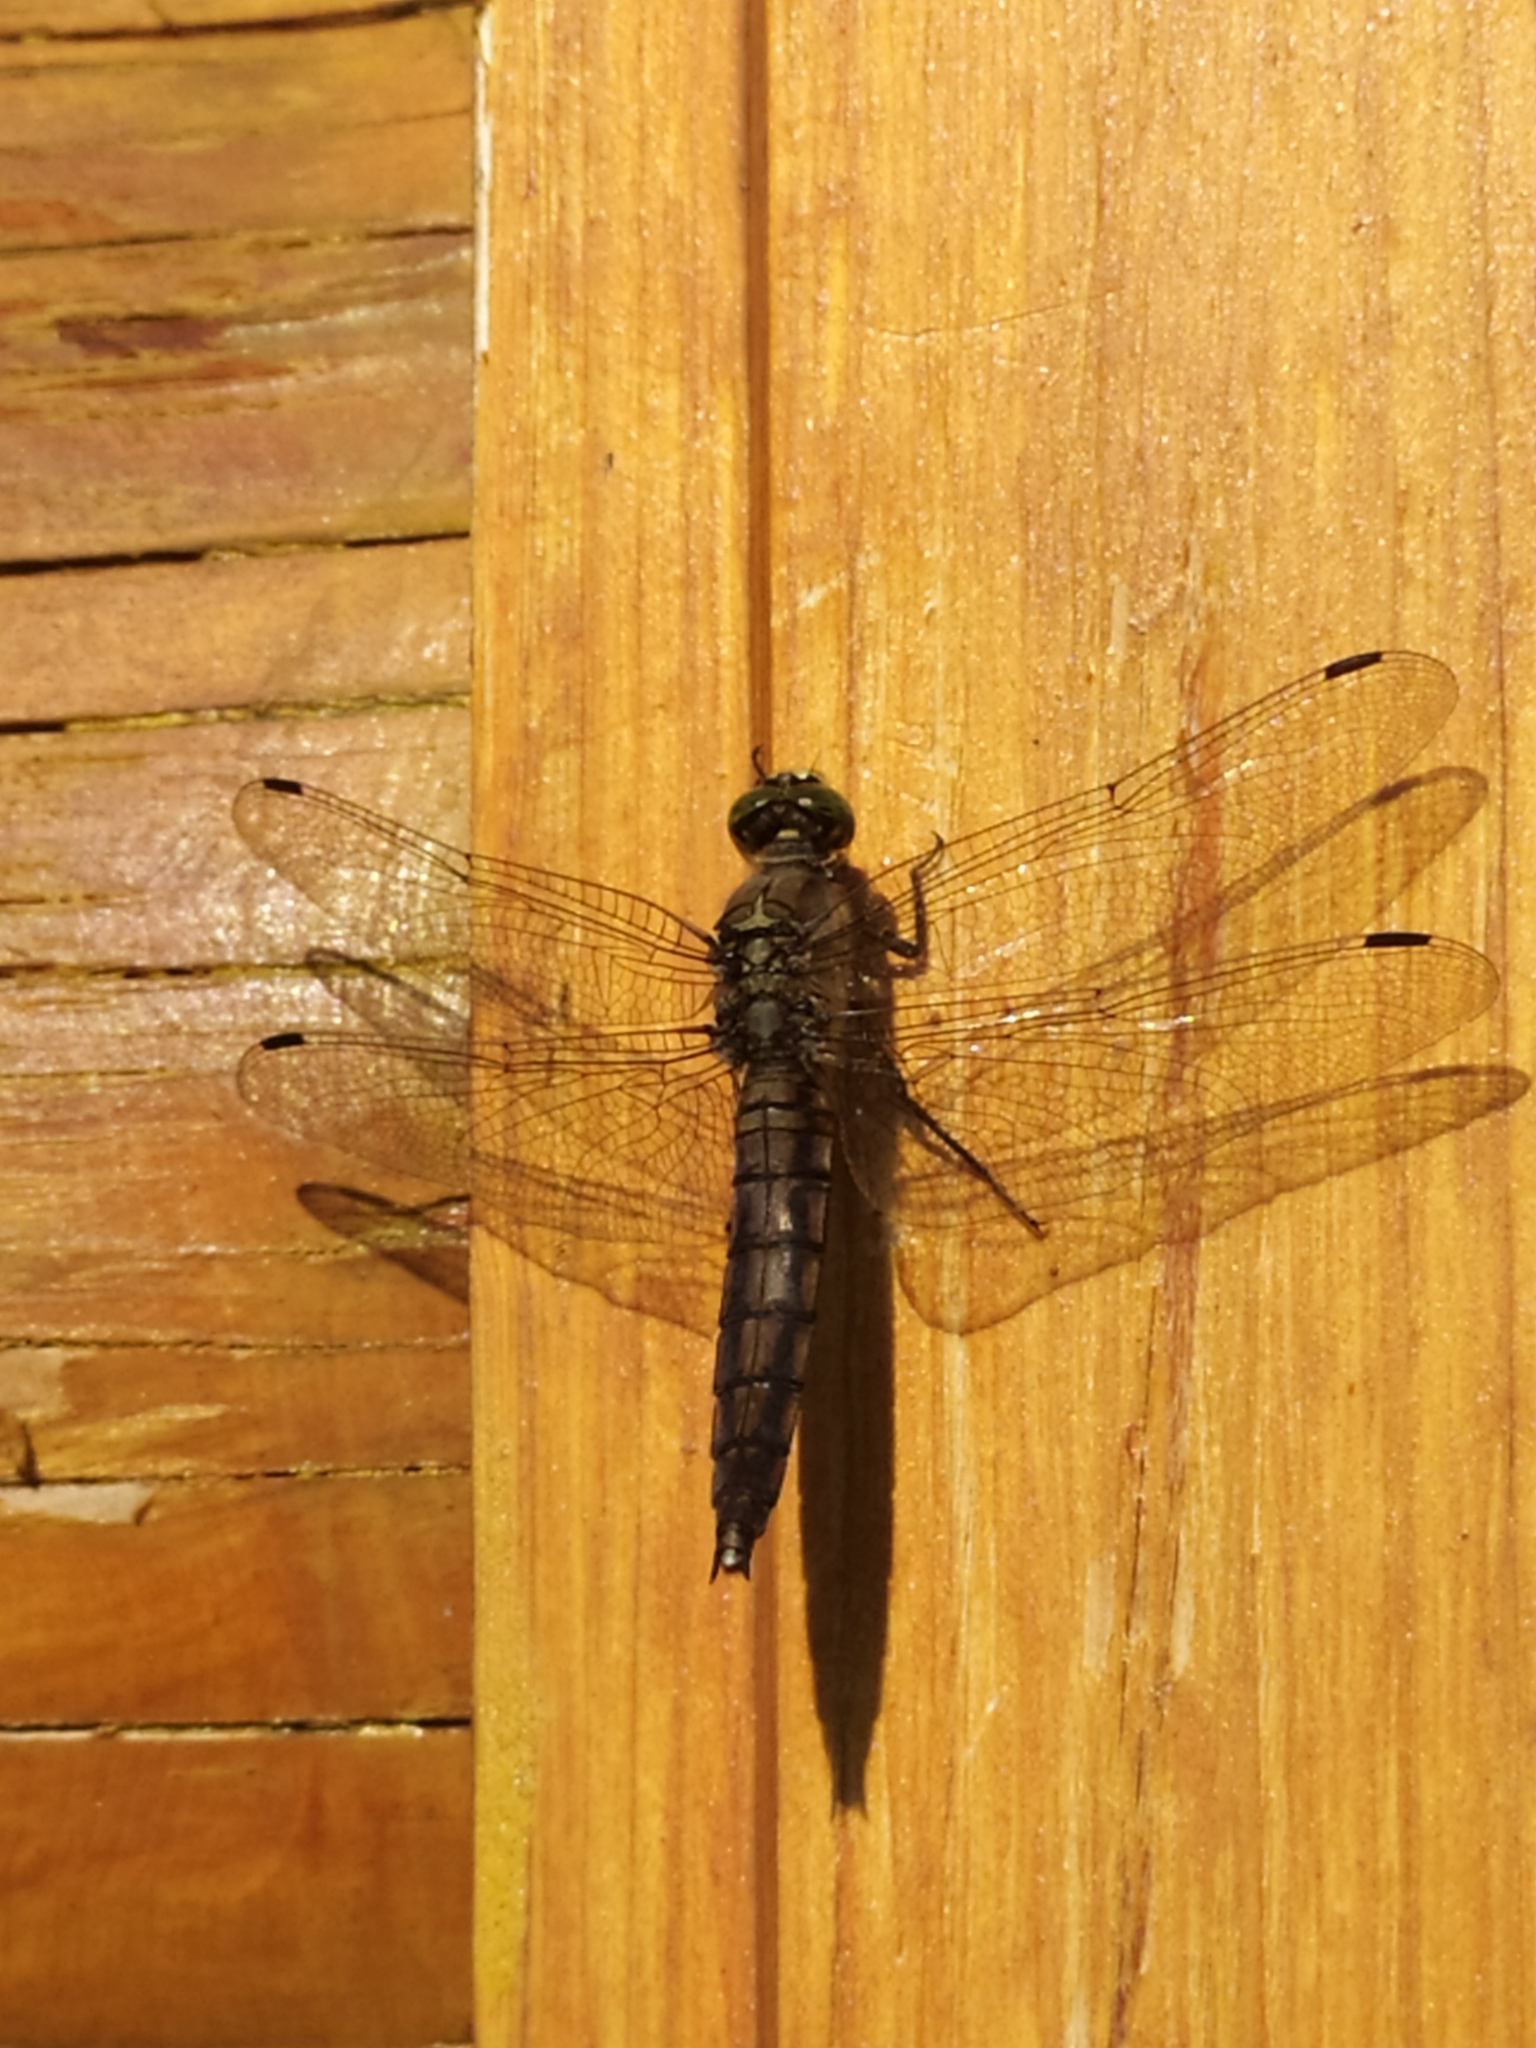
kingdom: Animalia
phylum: Arthropoda
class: Insecta
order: Odonata
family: Libellulidae
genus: Orthetrum
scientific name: Orthetrum cancellatum
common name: Black-tailed skimmer
